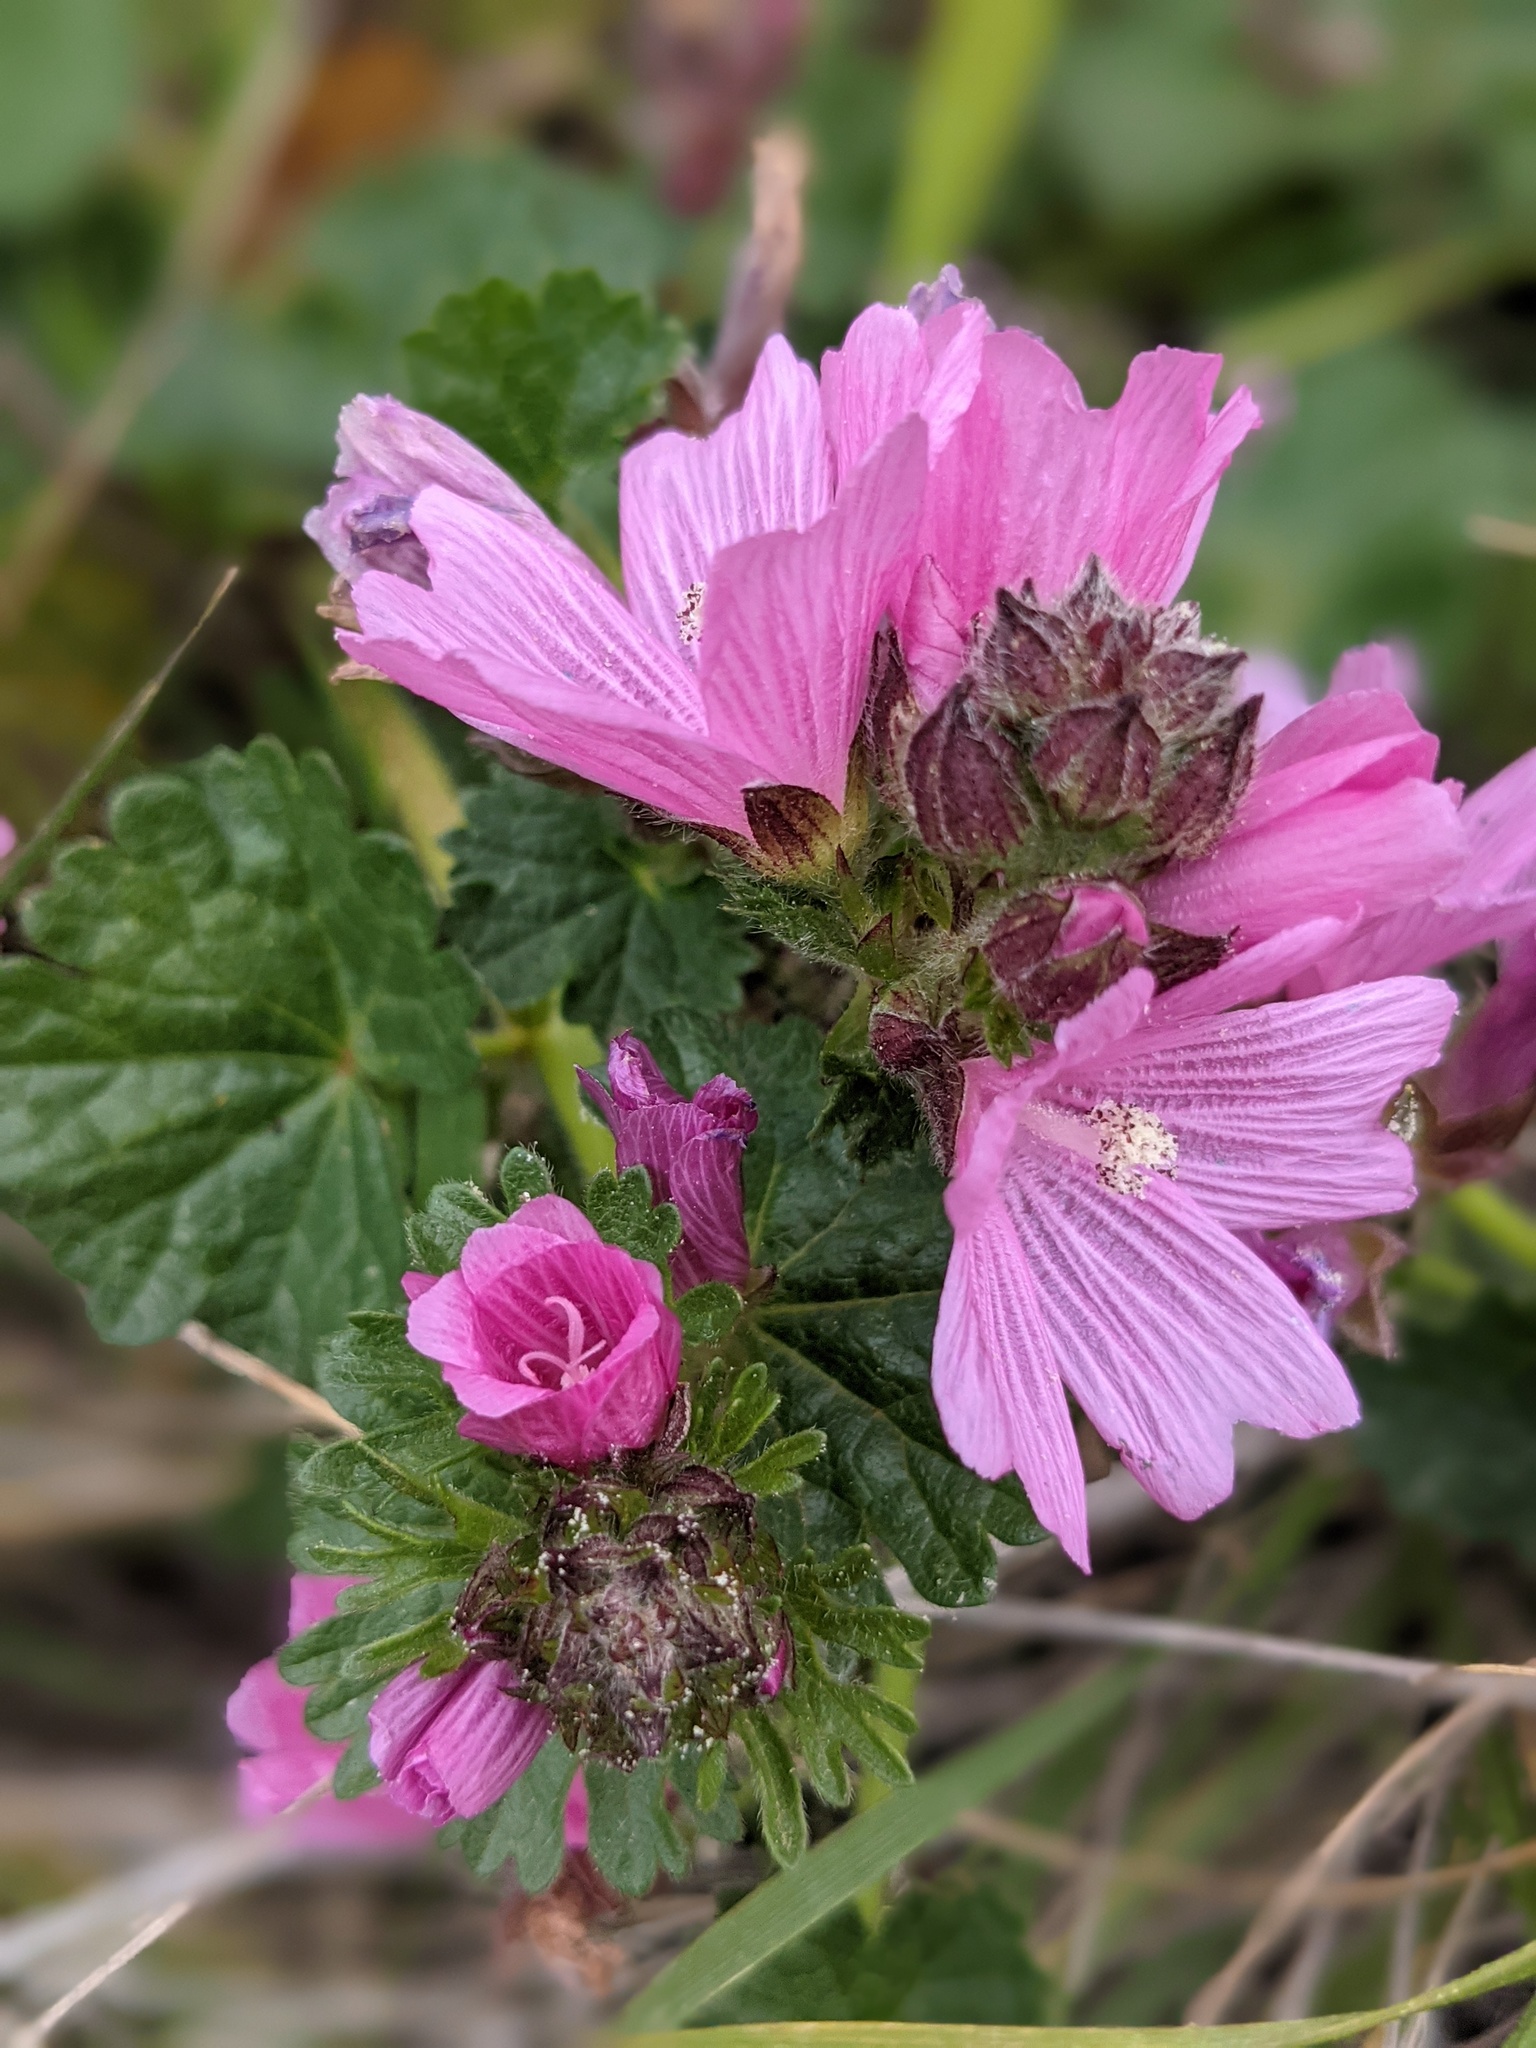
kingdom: Plantae
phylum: Tracheophyta
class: Magnoliopsida
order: Malvales
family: Malvaceae
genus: Sidalcea
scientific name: Sidalcea malviflora
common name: Greek mallow
